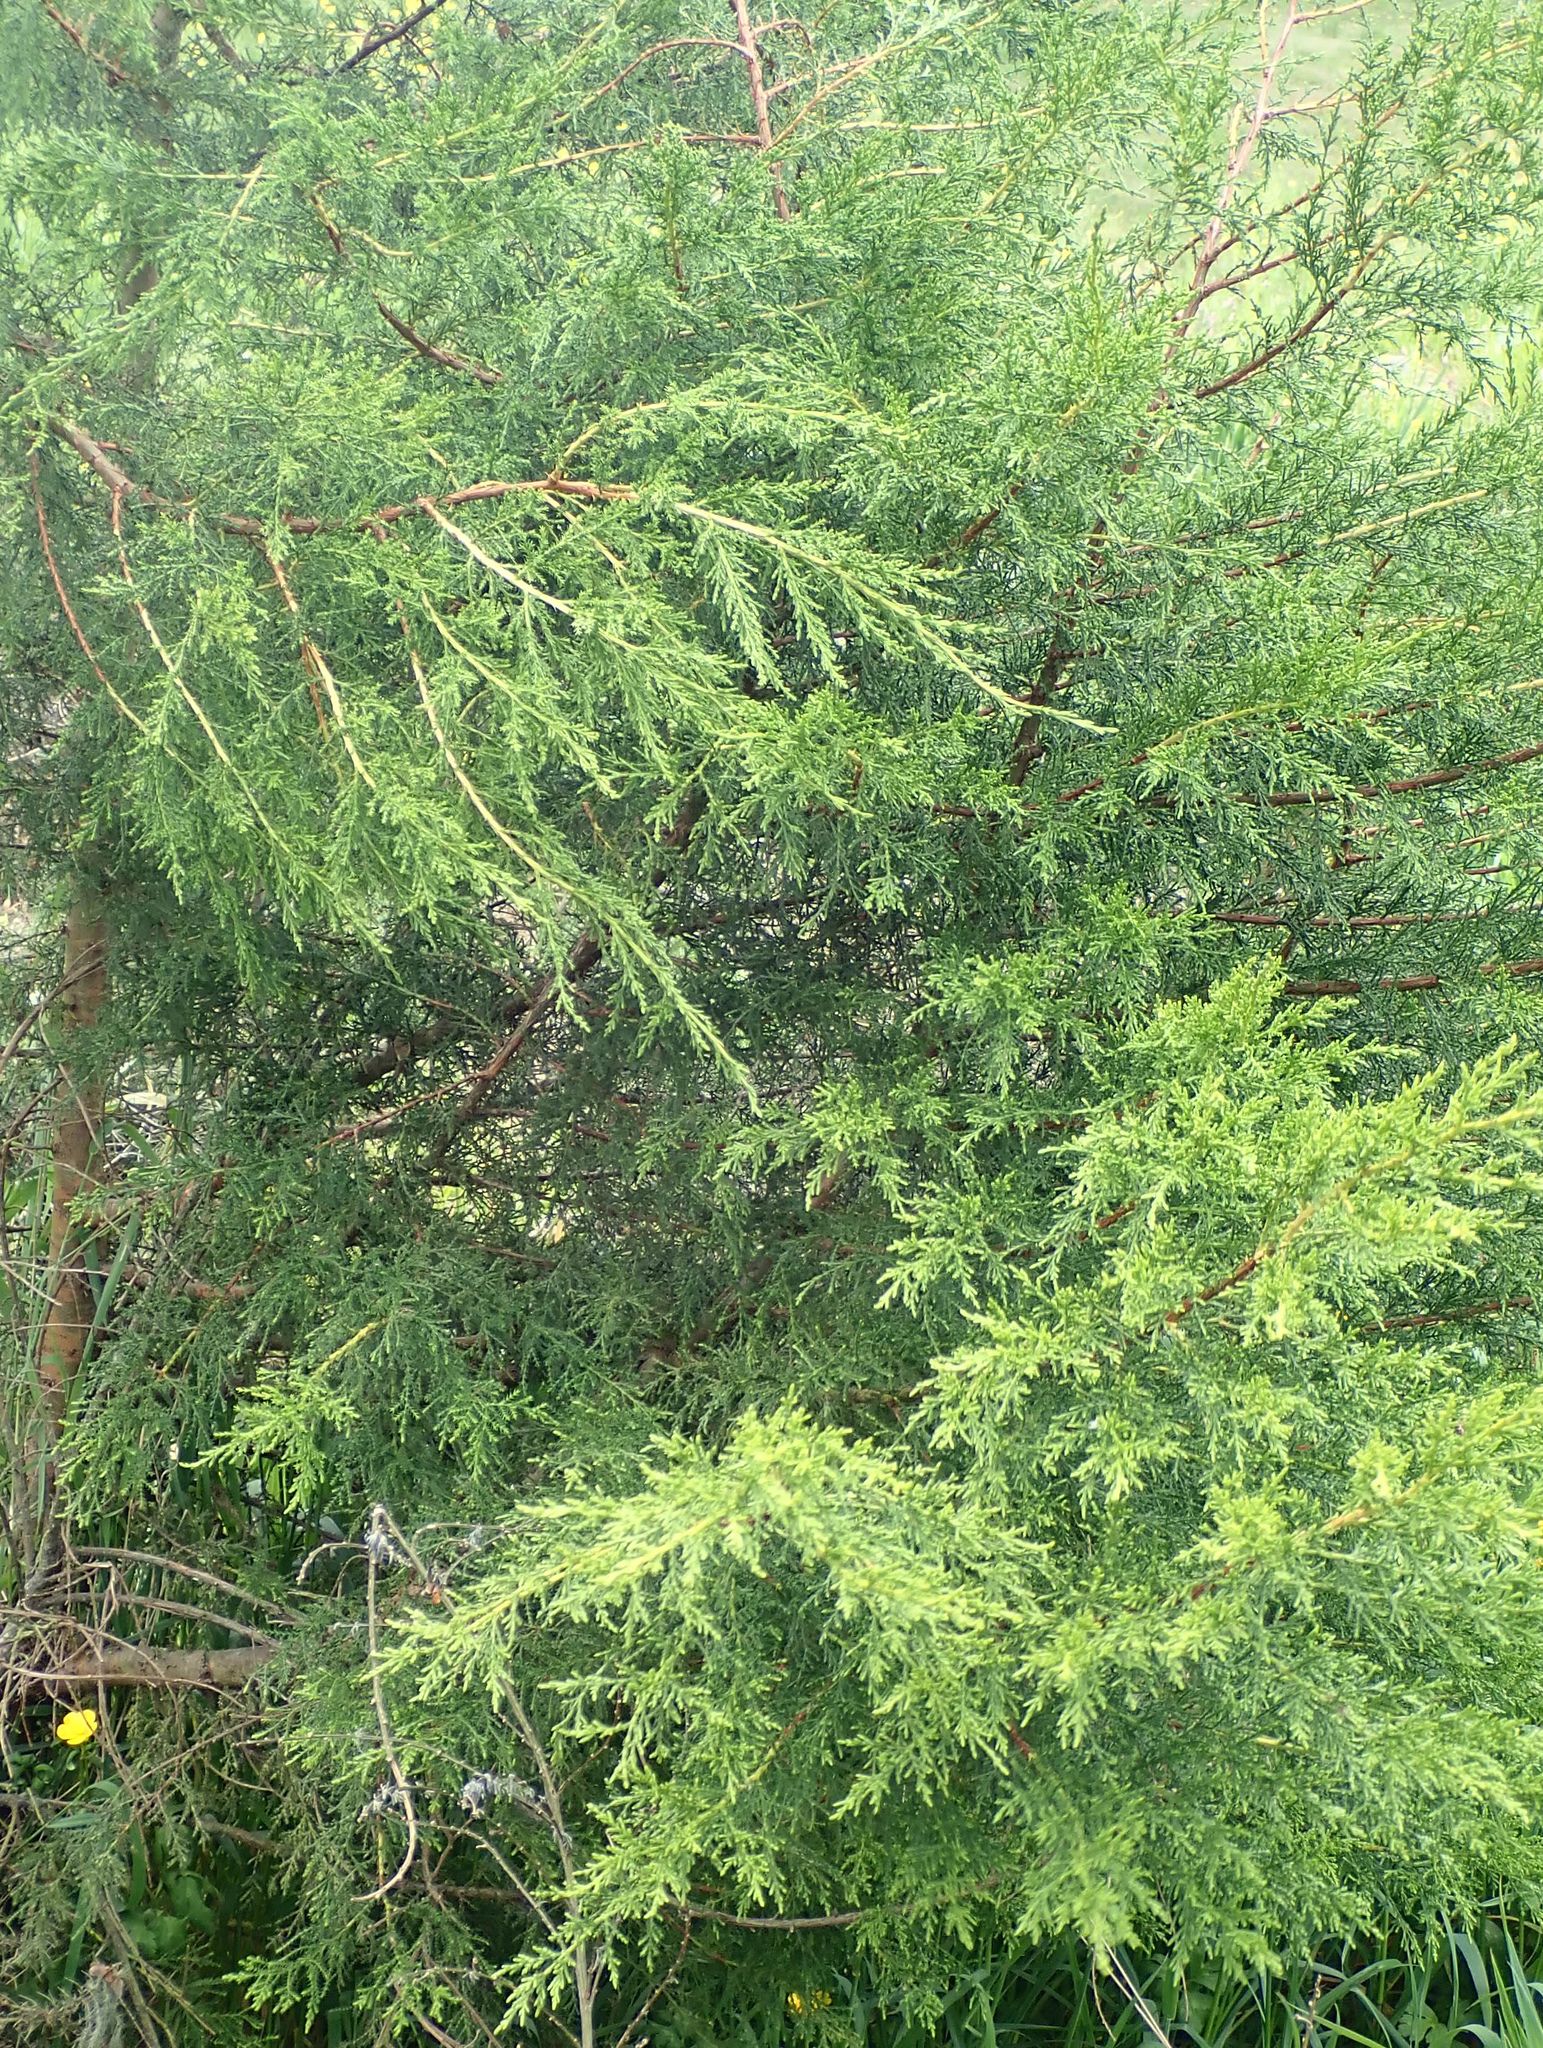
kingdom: Plantae
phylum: Tracheophyta
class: Pinopsida
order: Pinales
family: Cupressaceae
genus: Cupressus
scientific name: Cupressus macrocarpa
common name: Monterey cypress
